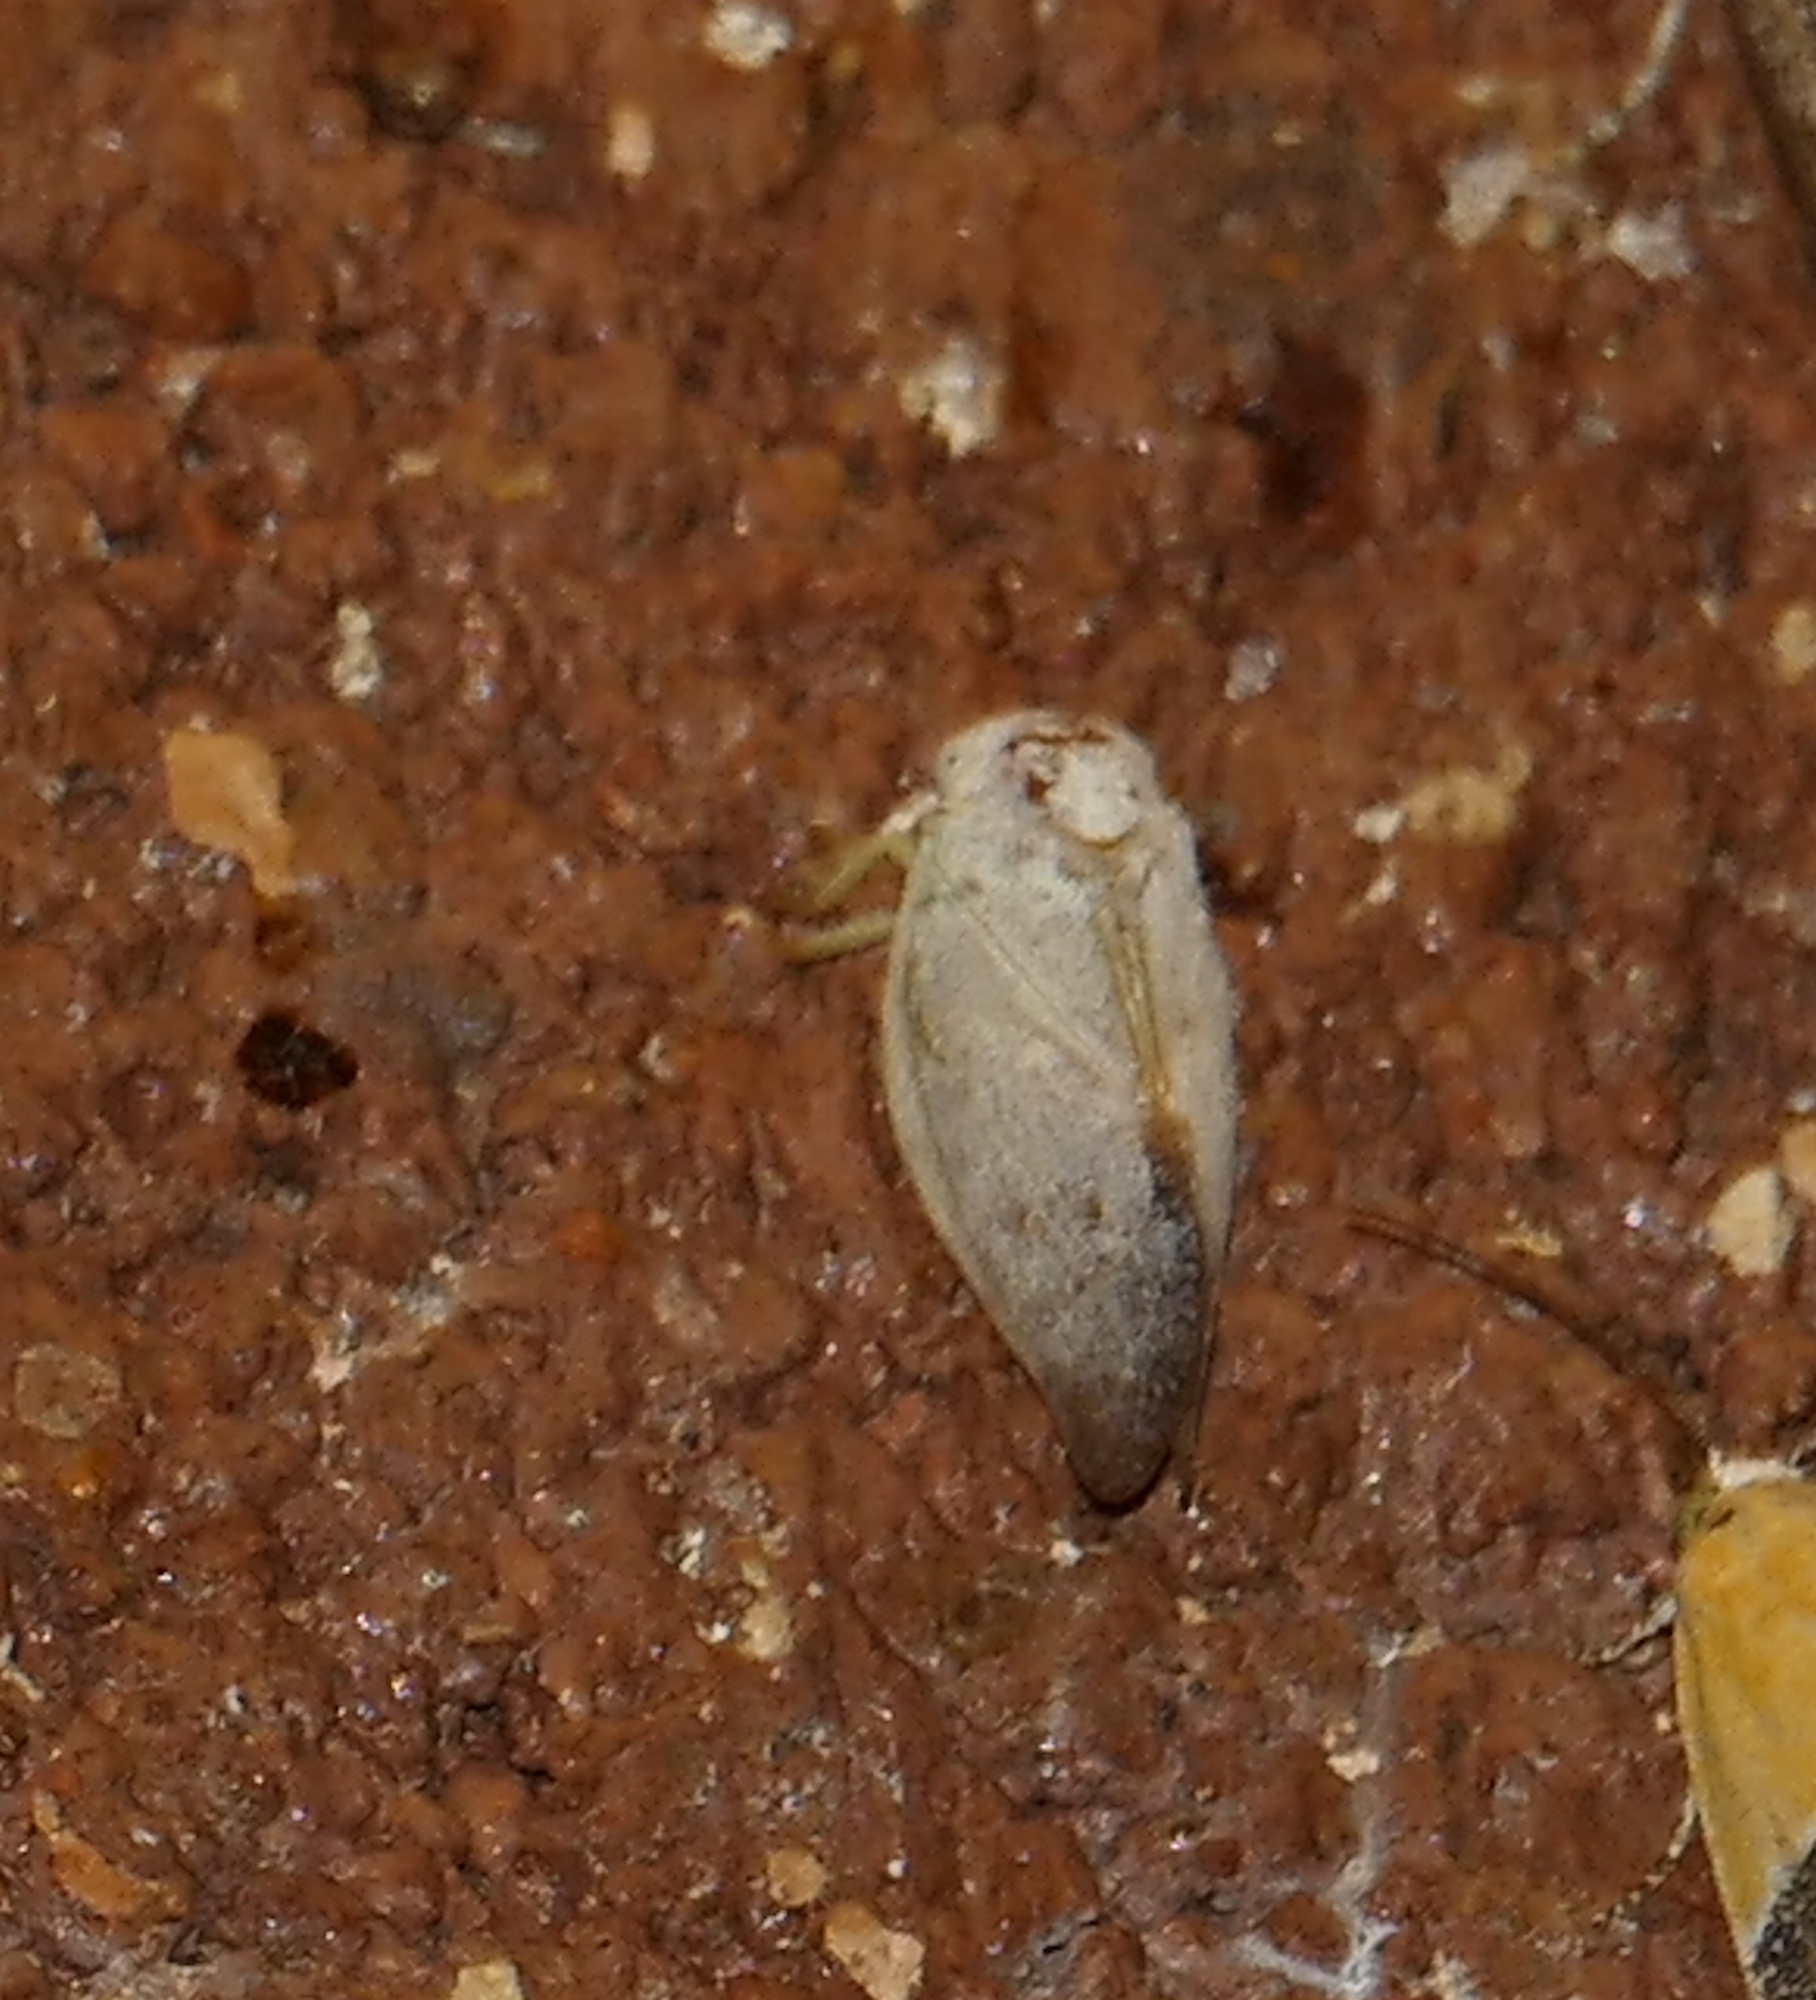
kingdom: Animalia
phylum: Arthropoda
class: Insecta
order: Hemiptera
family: Flatidae
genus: Flatormenis
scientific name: Flatormenis saucia
